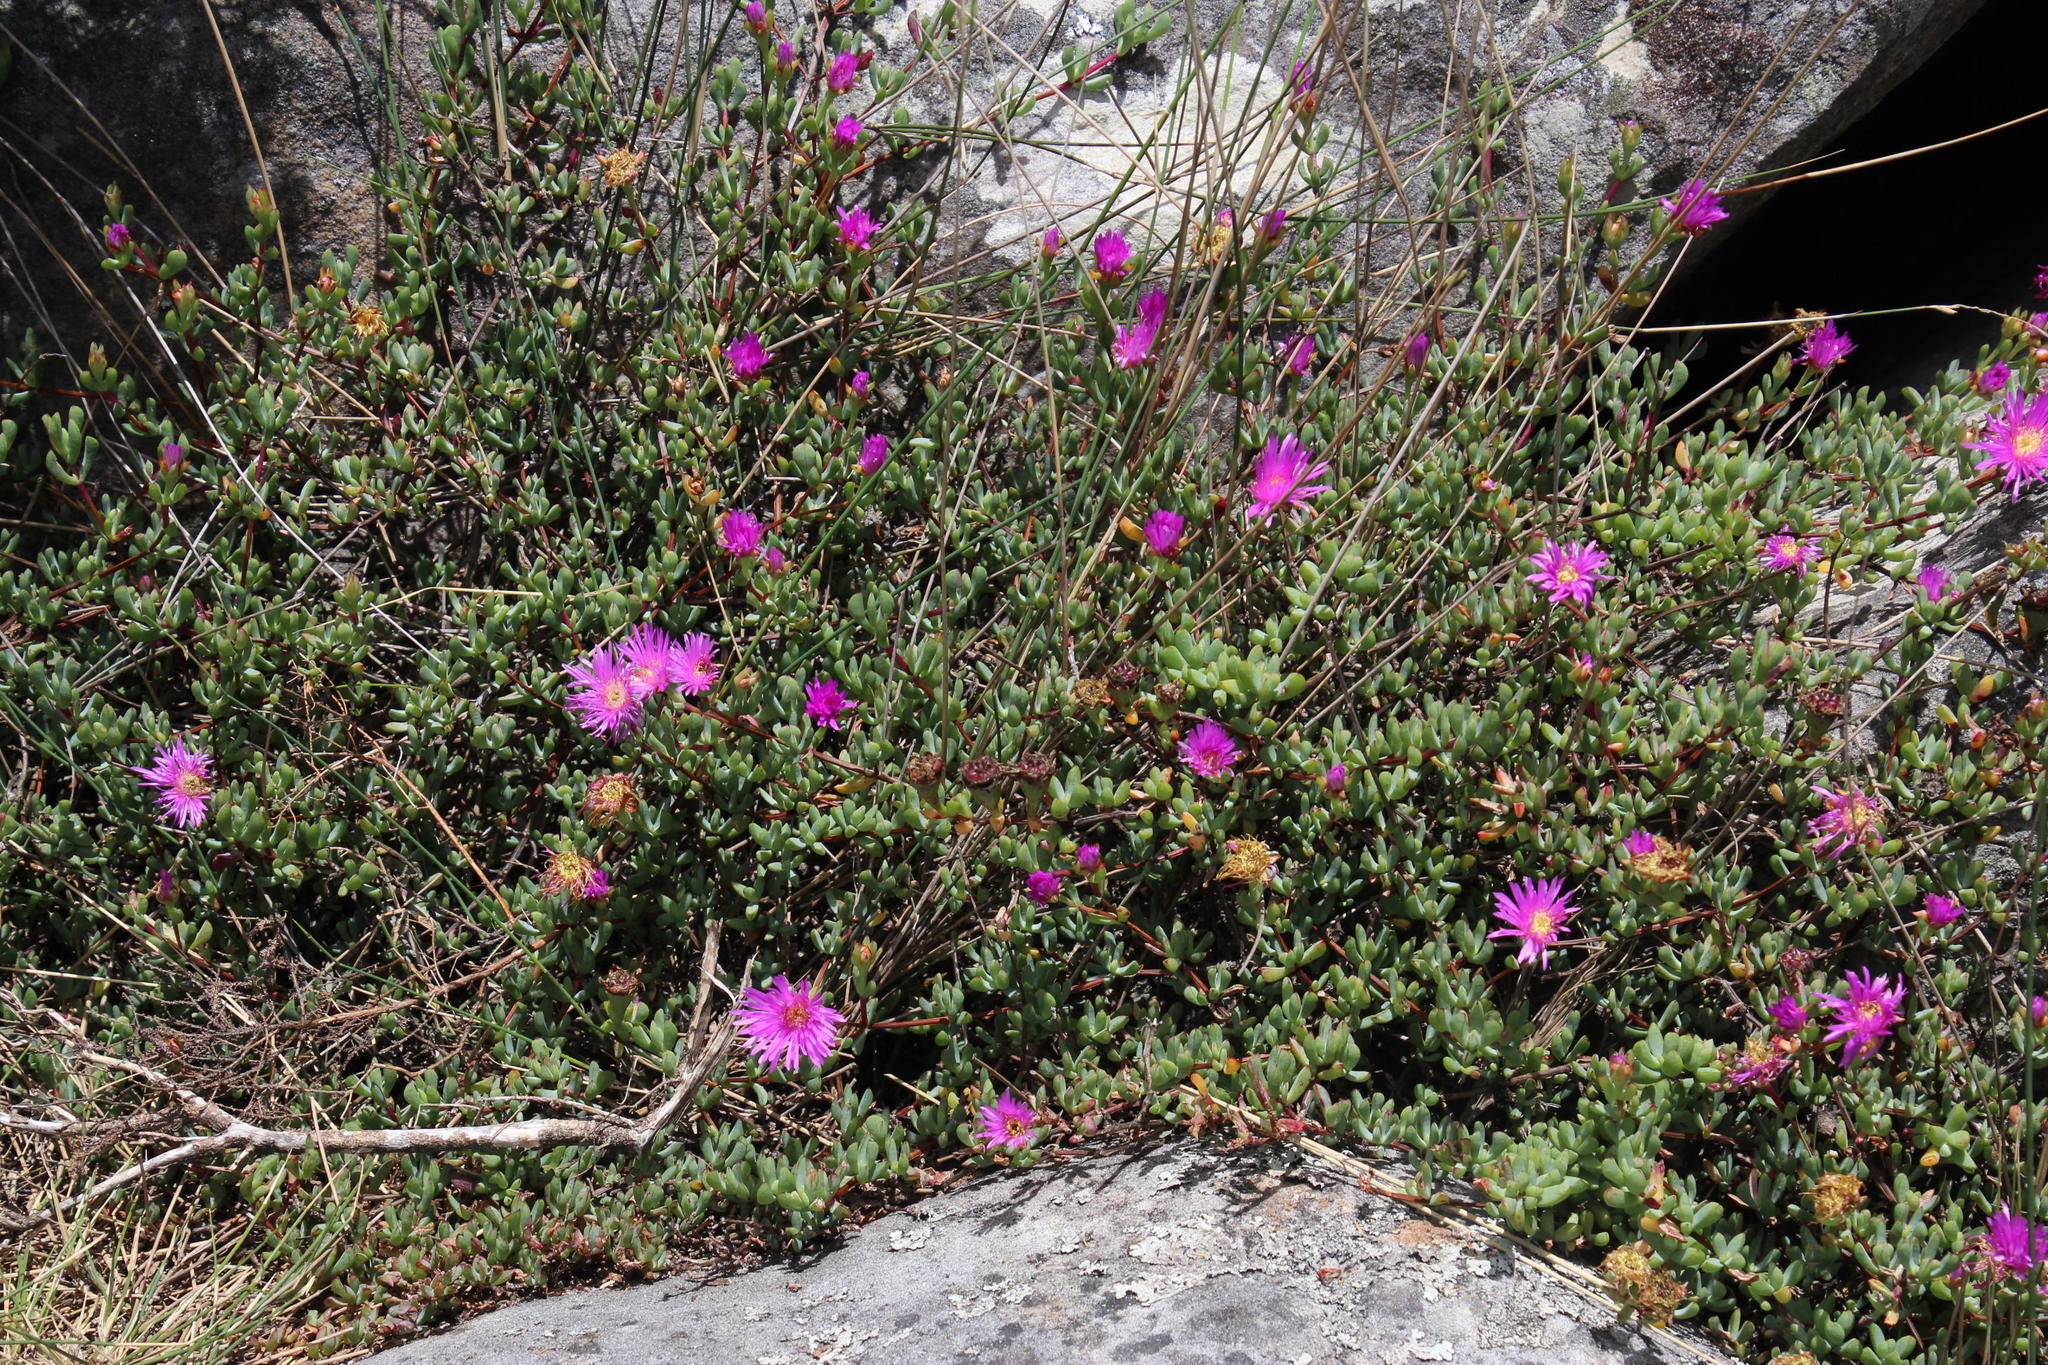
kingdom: Plantae
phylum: Tracheophyta
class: Magnoliopsida
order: Caryophyllales
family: Aizoaceae
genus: Oscularia
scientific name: Oscularia falciformis
